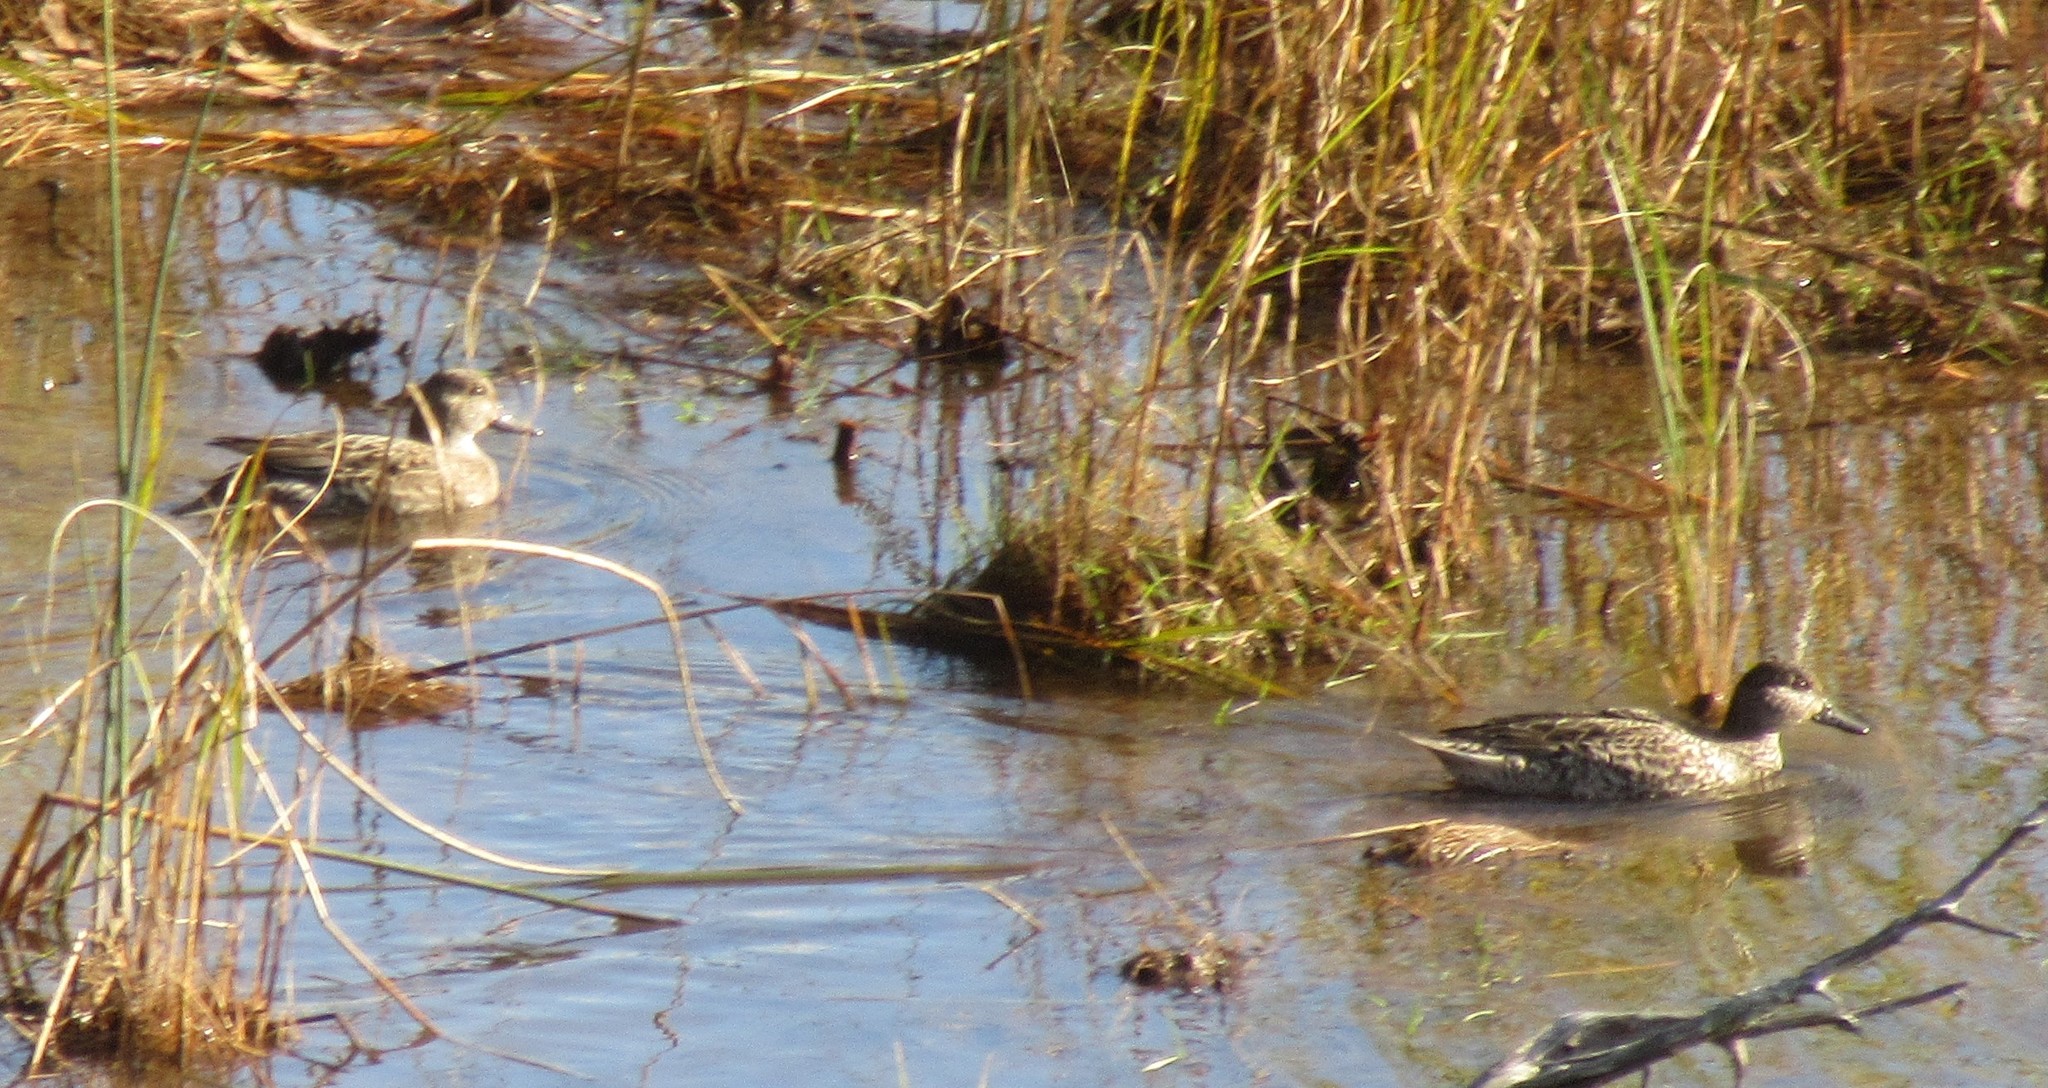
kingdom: Animalia
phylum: Chordata
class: Aves
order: Anseriformes
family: Anatidae
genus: Anas
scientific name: Anas crecca
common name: Eurasian teal
